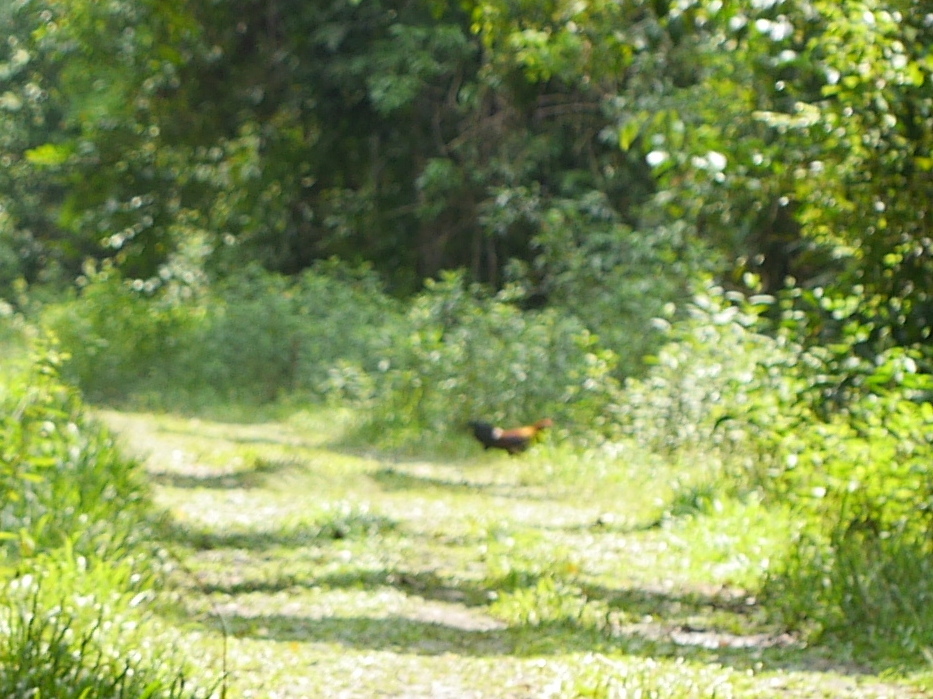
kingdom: Animalia
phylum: Chordata
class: Aves
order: Galliformes
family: Phasianidae
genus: Gallus
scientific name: Gallus gallus
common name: Red junglefowl
